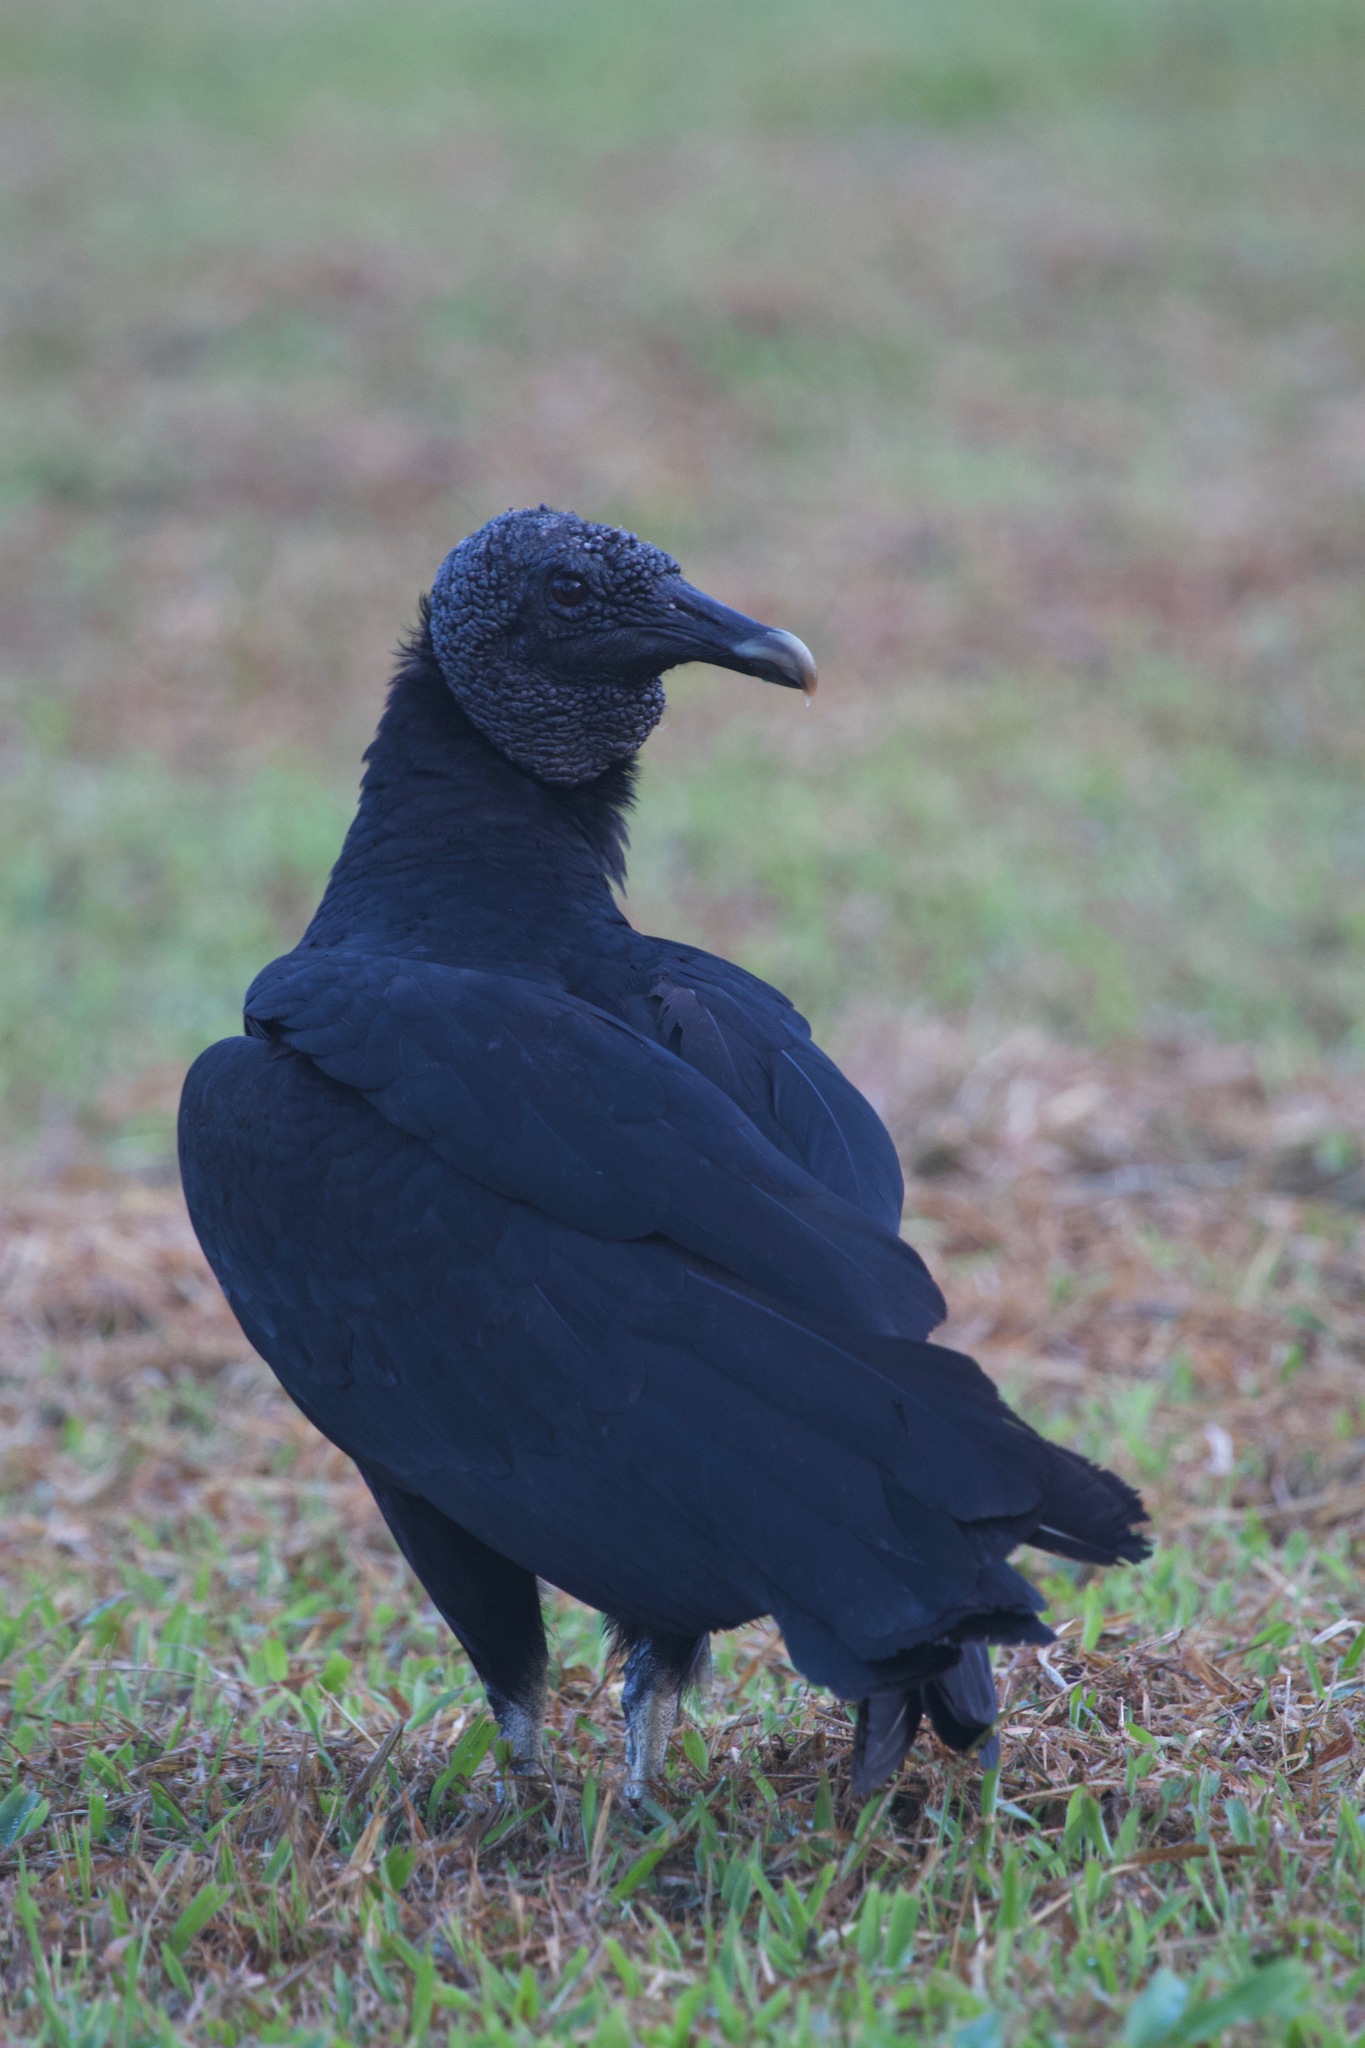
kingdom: Animalia
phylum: Chordata
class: Aves
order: Accipitriformes
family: Cathartidae
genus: Coragyps
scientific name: Coragyps atratus
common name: Black vulture
